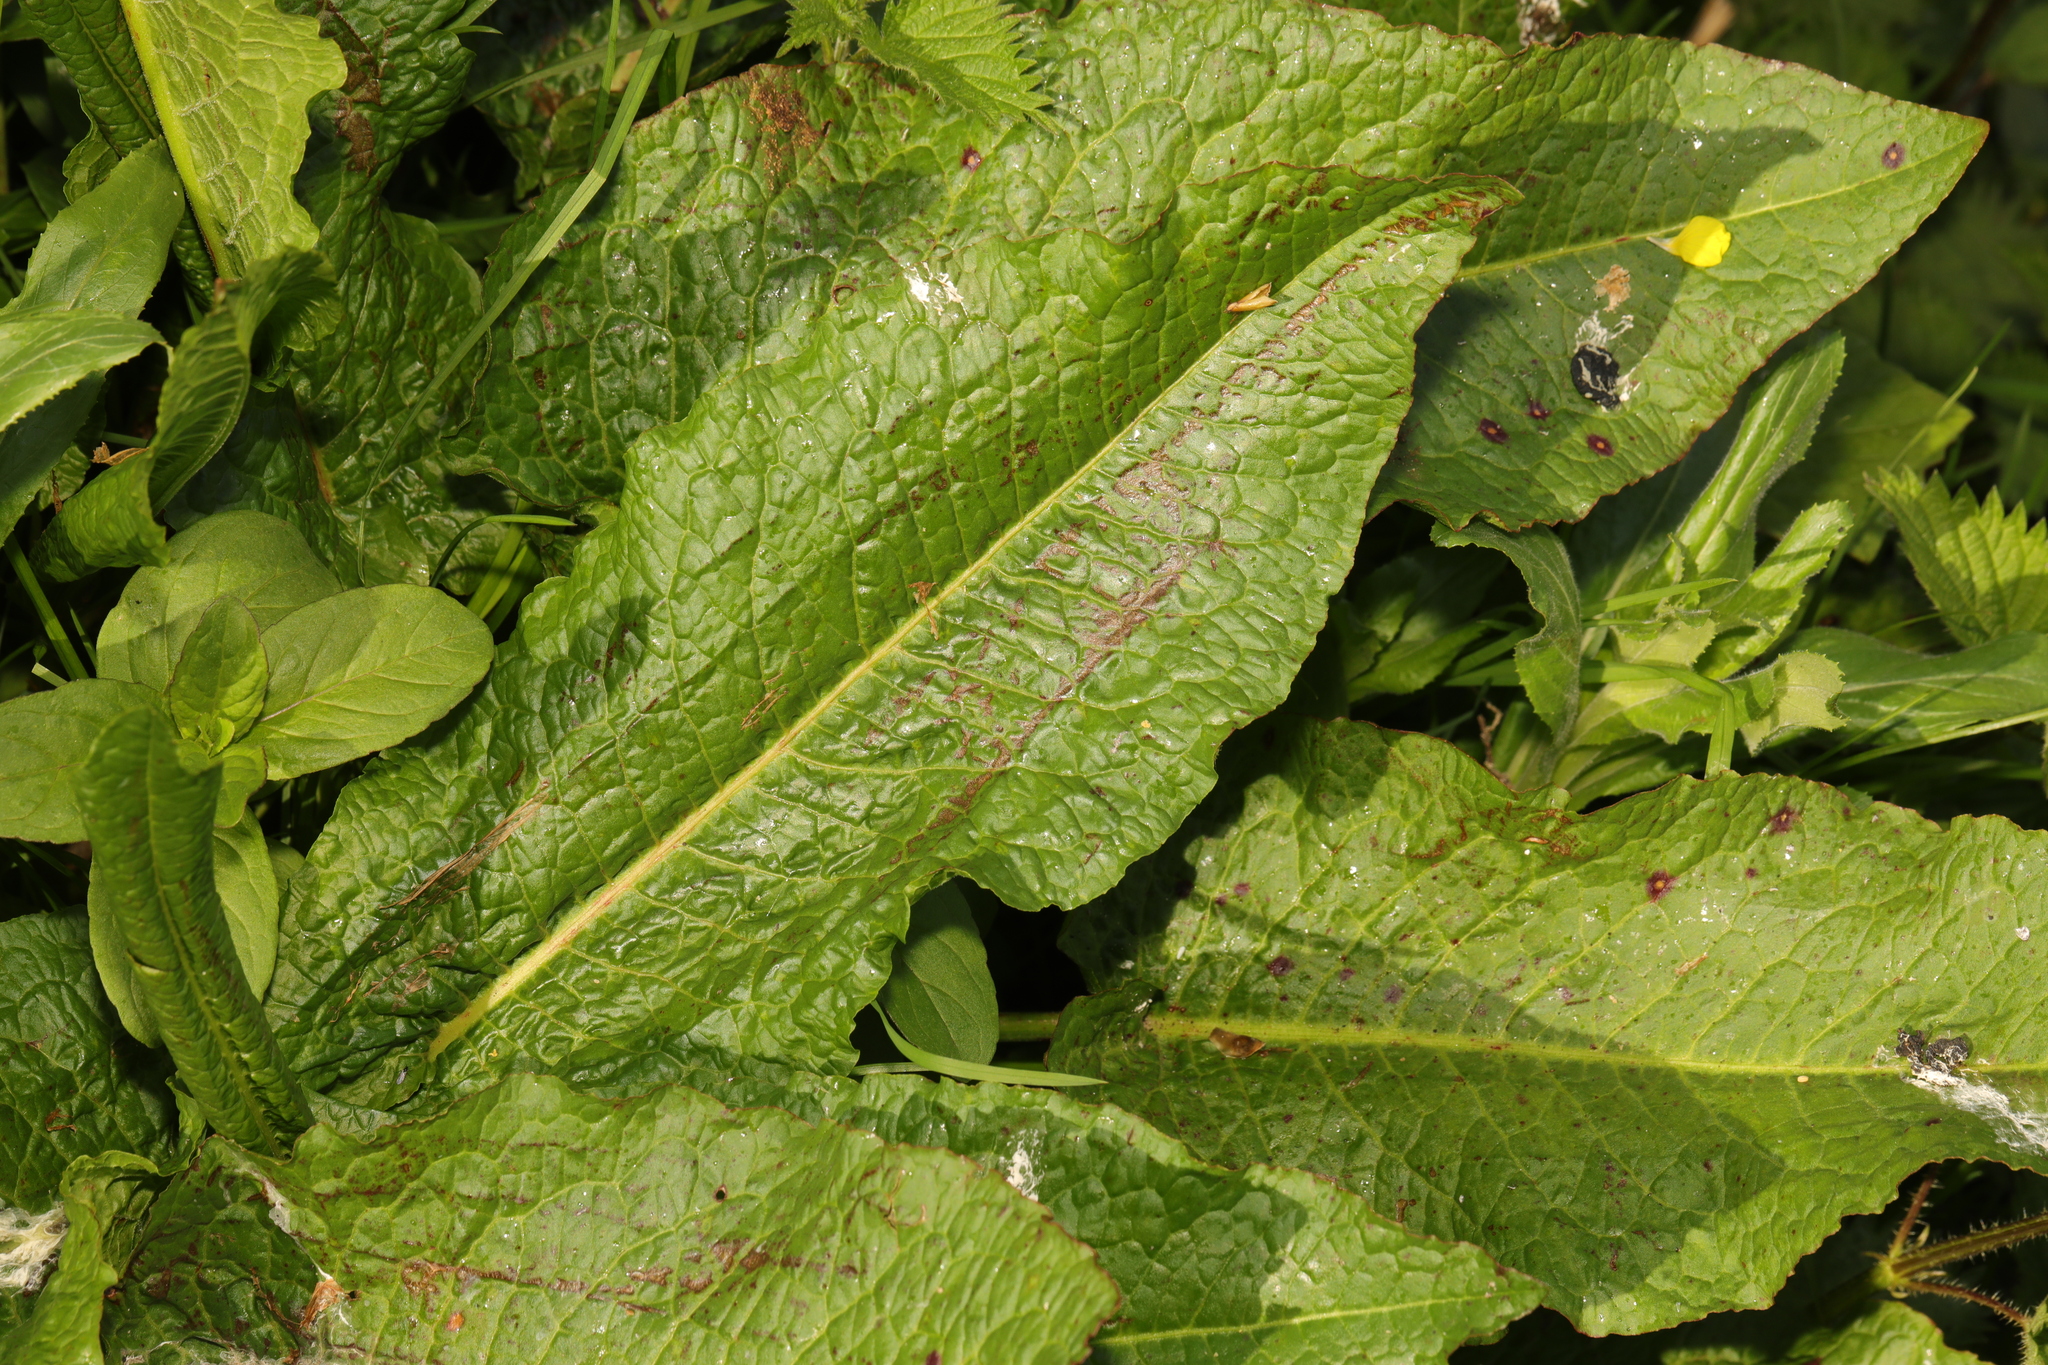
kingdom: Plantae
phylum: Tracheophyta
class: Magnoliopsida
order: Caryophyllales
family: Polygonaceae
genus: Rumex
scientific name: Rumex obtusifolius
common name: Bitter dock
